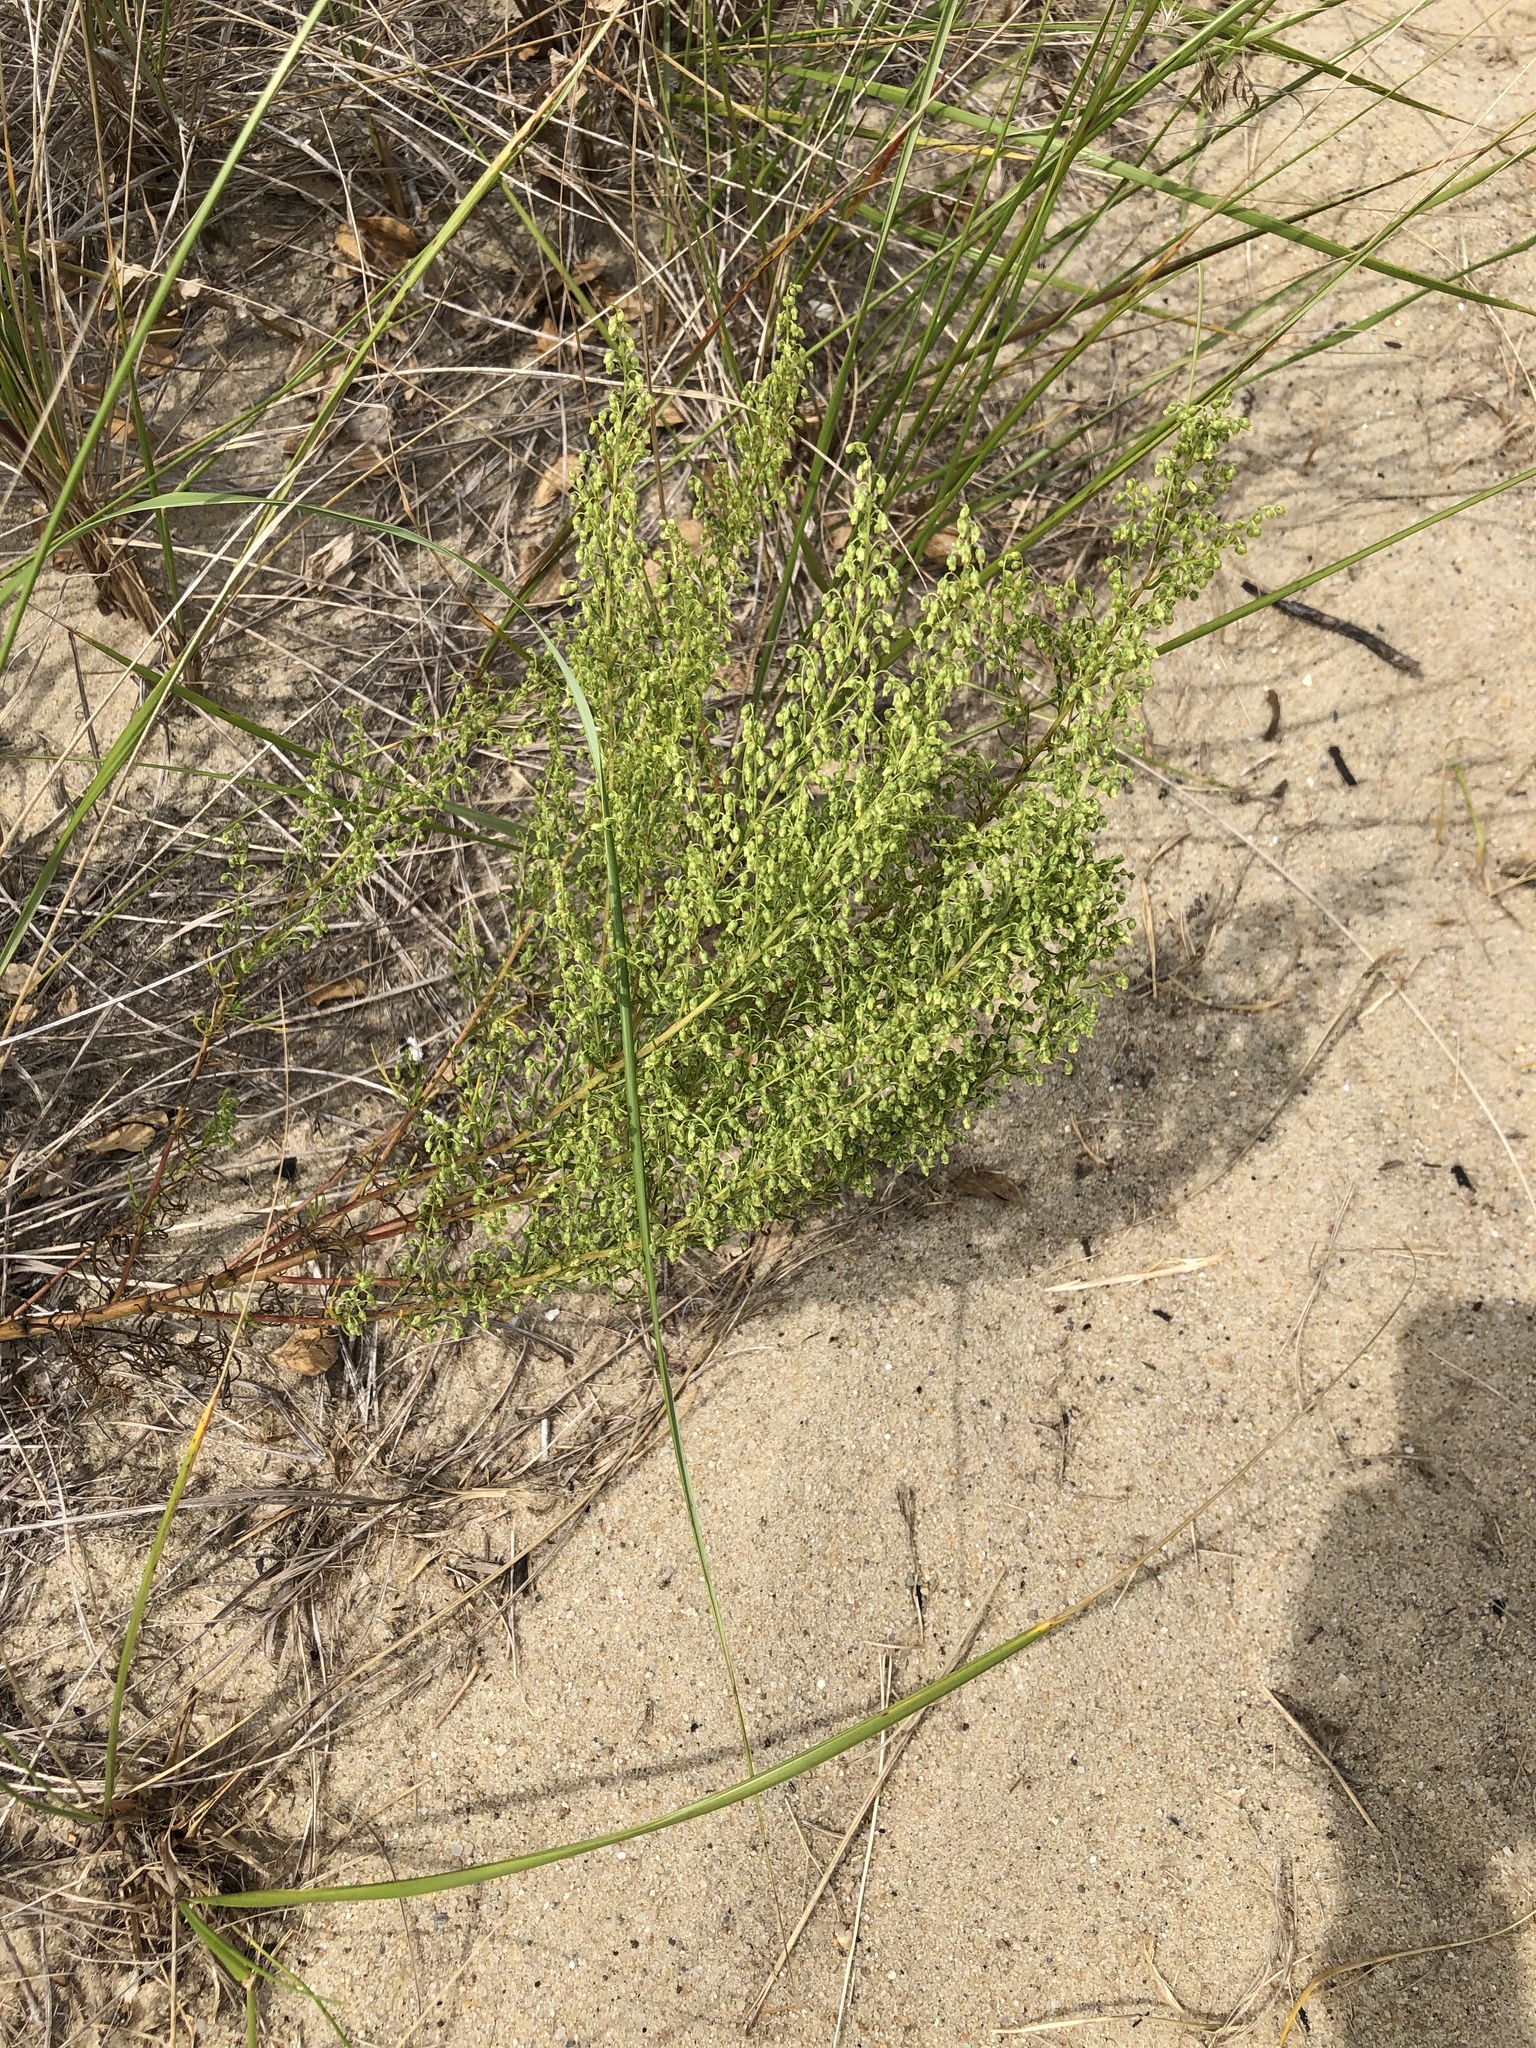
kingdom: Plantae
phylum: Tracheophyta
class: Magnoliopsida
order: Asterales
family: Asteraceae
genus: Artemisia
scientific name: Artemisia campestris
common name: Field wormwood
